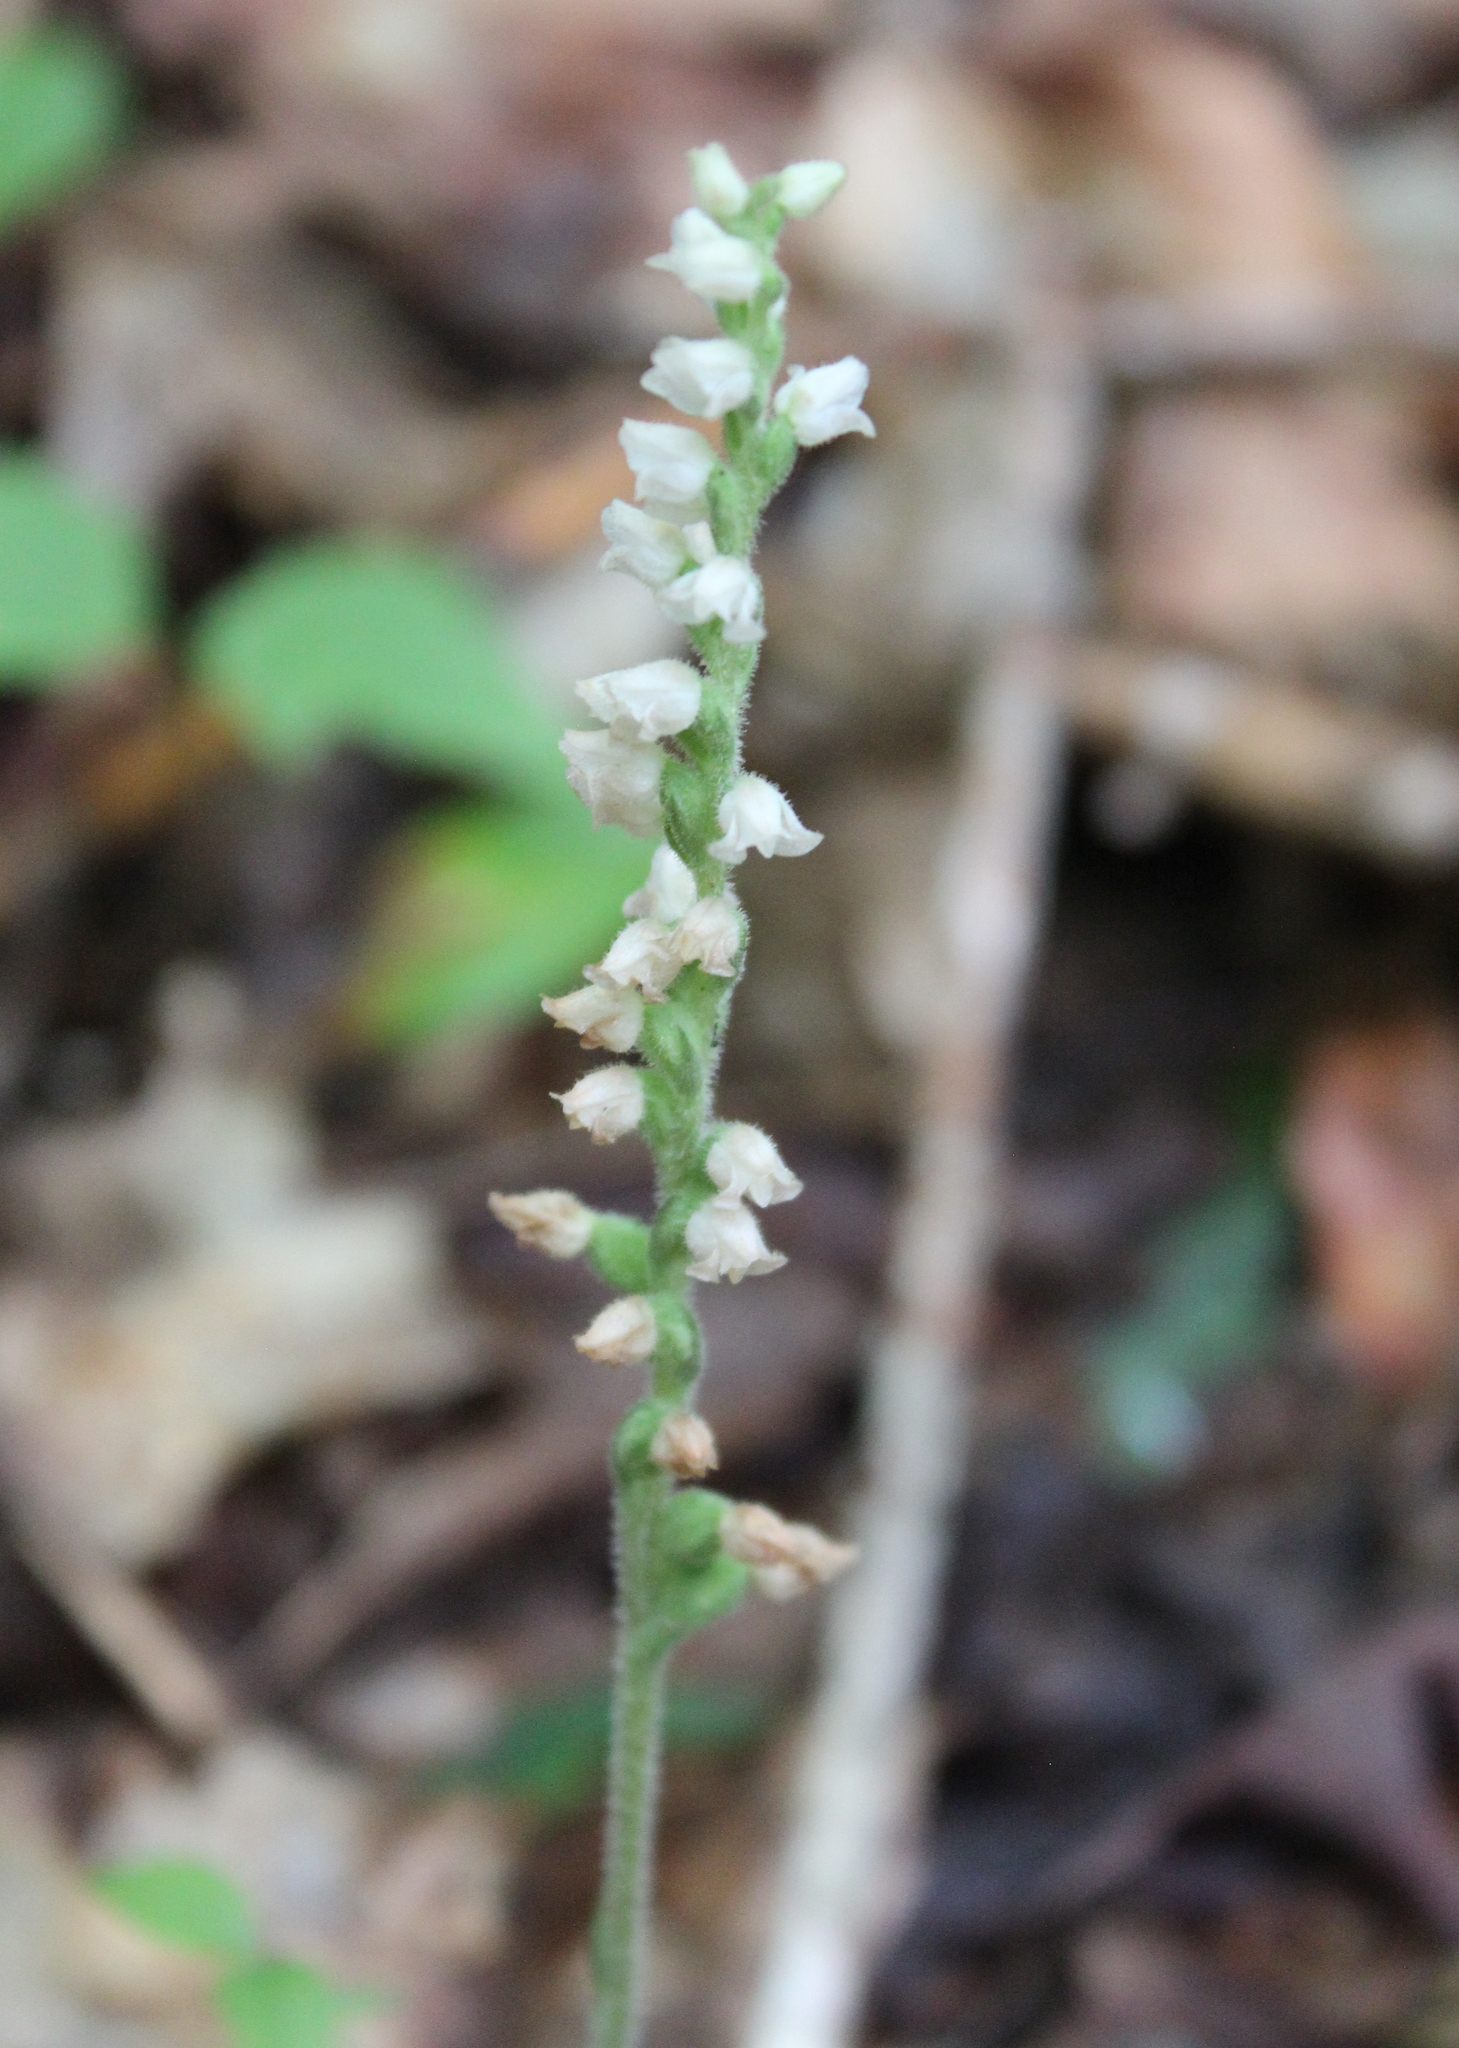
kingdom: Plantae
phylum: Tracheophyta
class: Liliopsida
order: Asparagales
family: Orchidaceae
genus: Goodyera
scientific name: Goodyera tesselata
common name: Checkered rattlesnake-plantain
